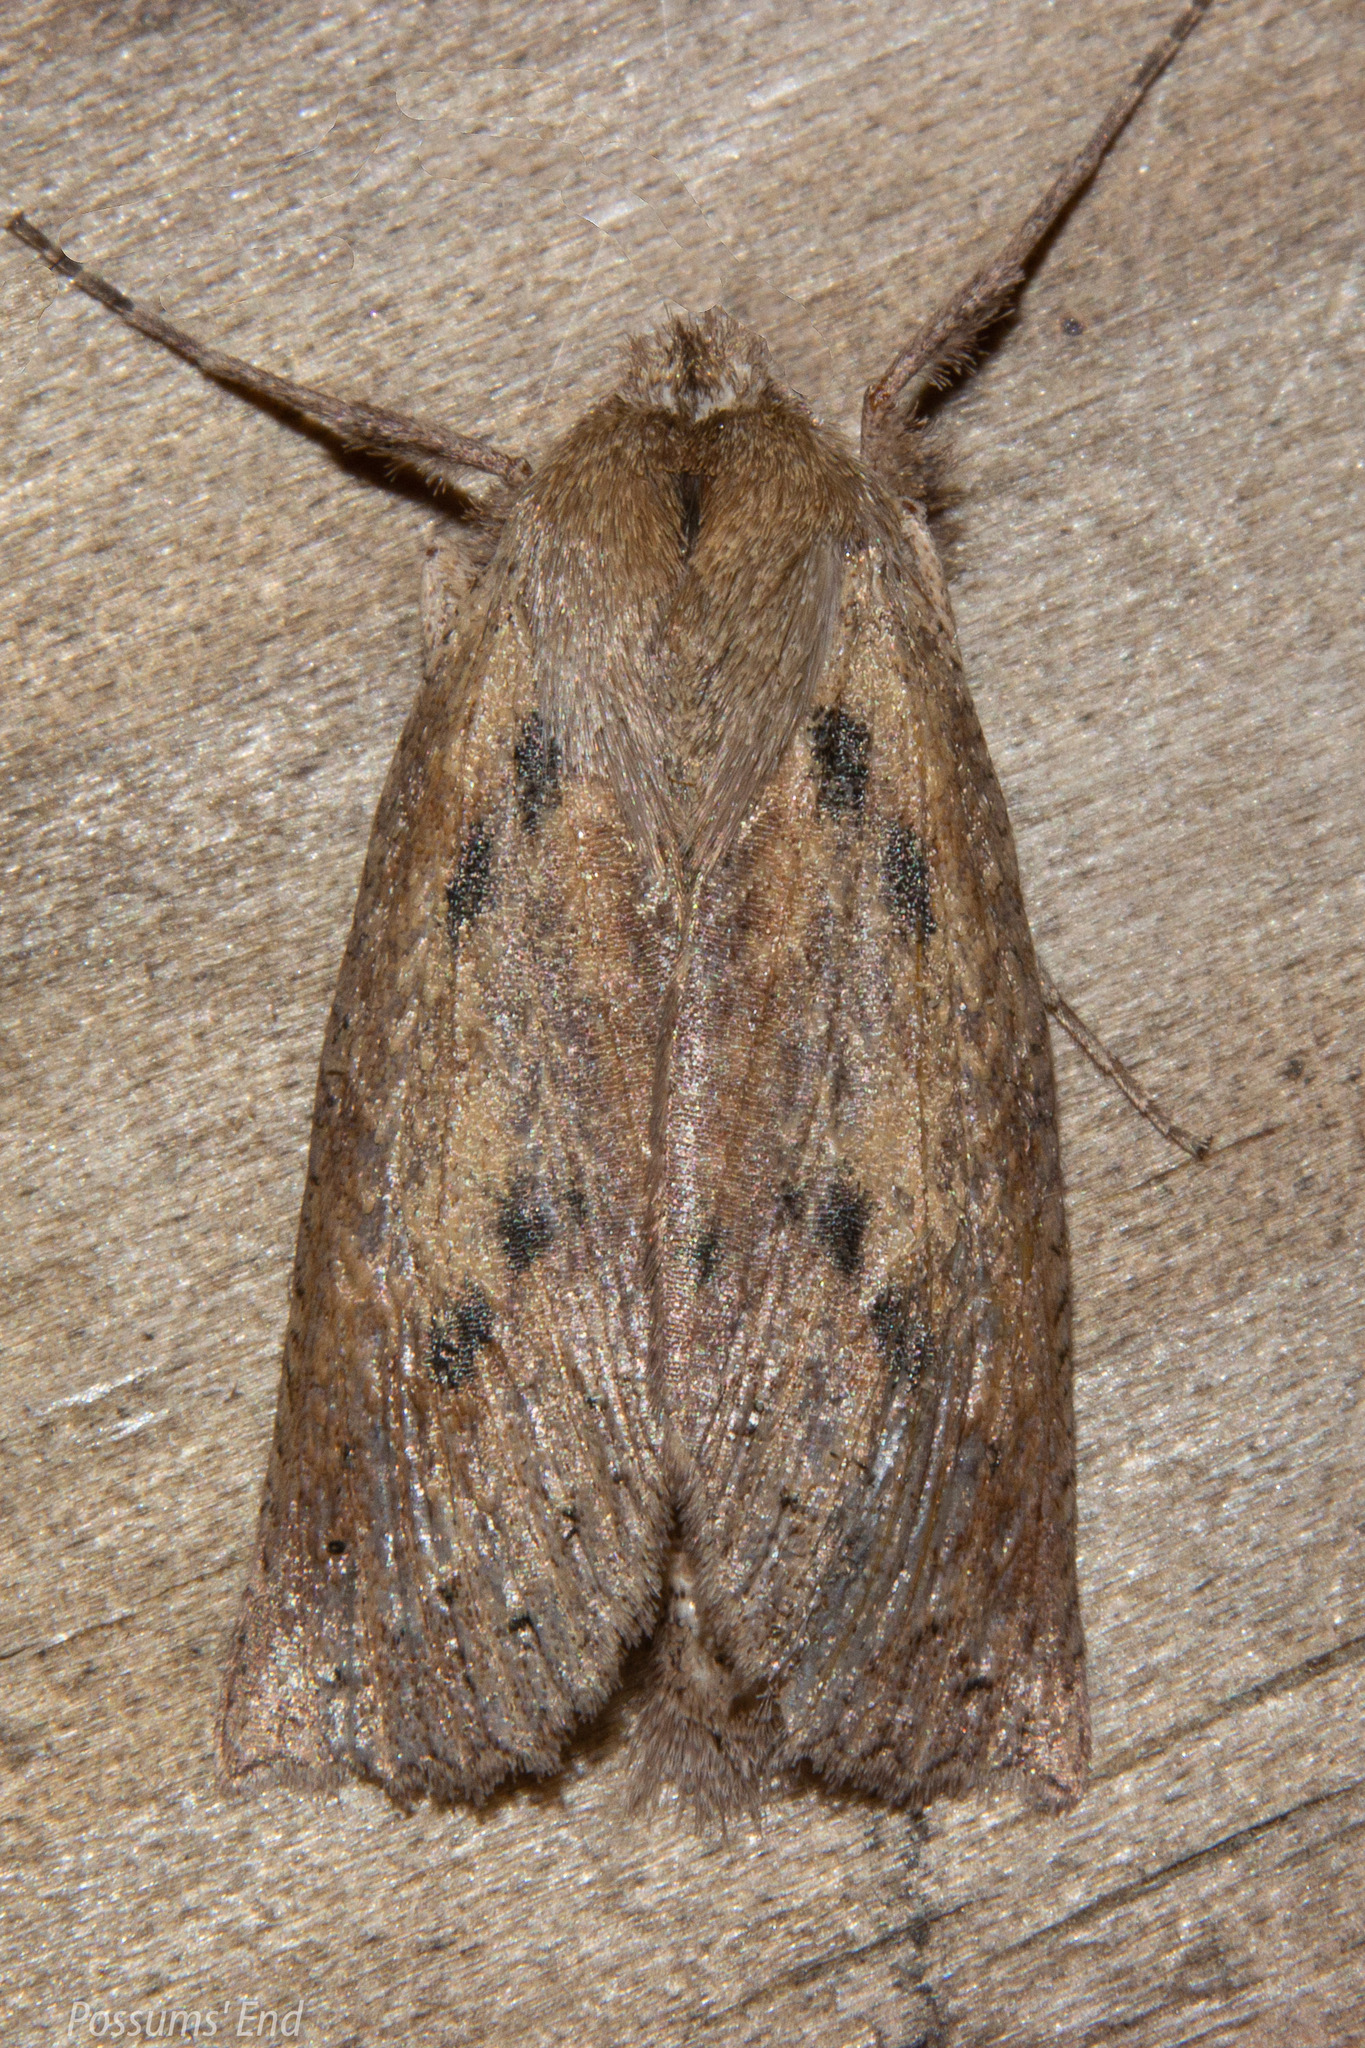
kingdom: Animalia
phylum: Arthropoda
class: Insecta
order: Lepidoptera
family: Geometridae
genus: Declana
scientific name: Declana leptomera
